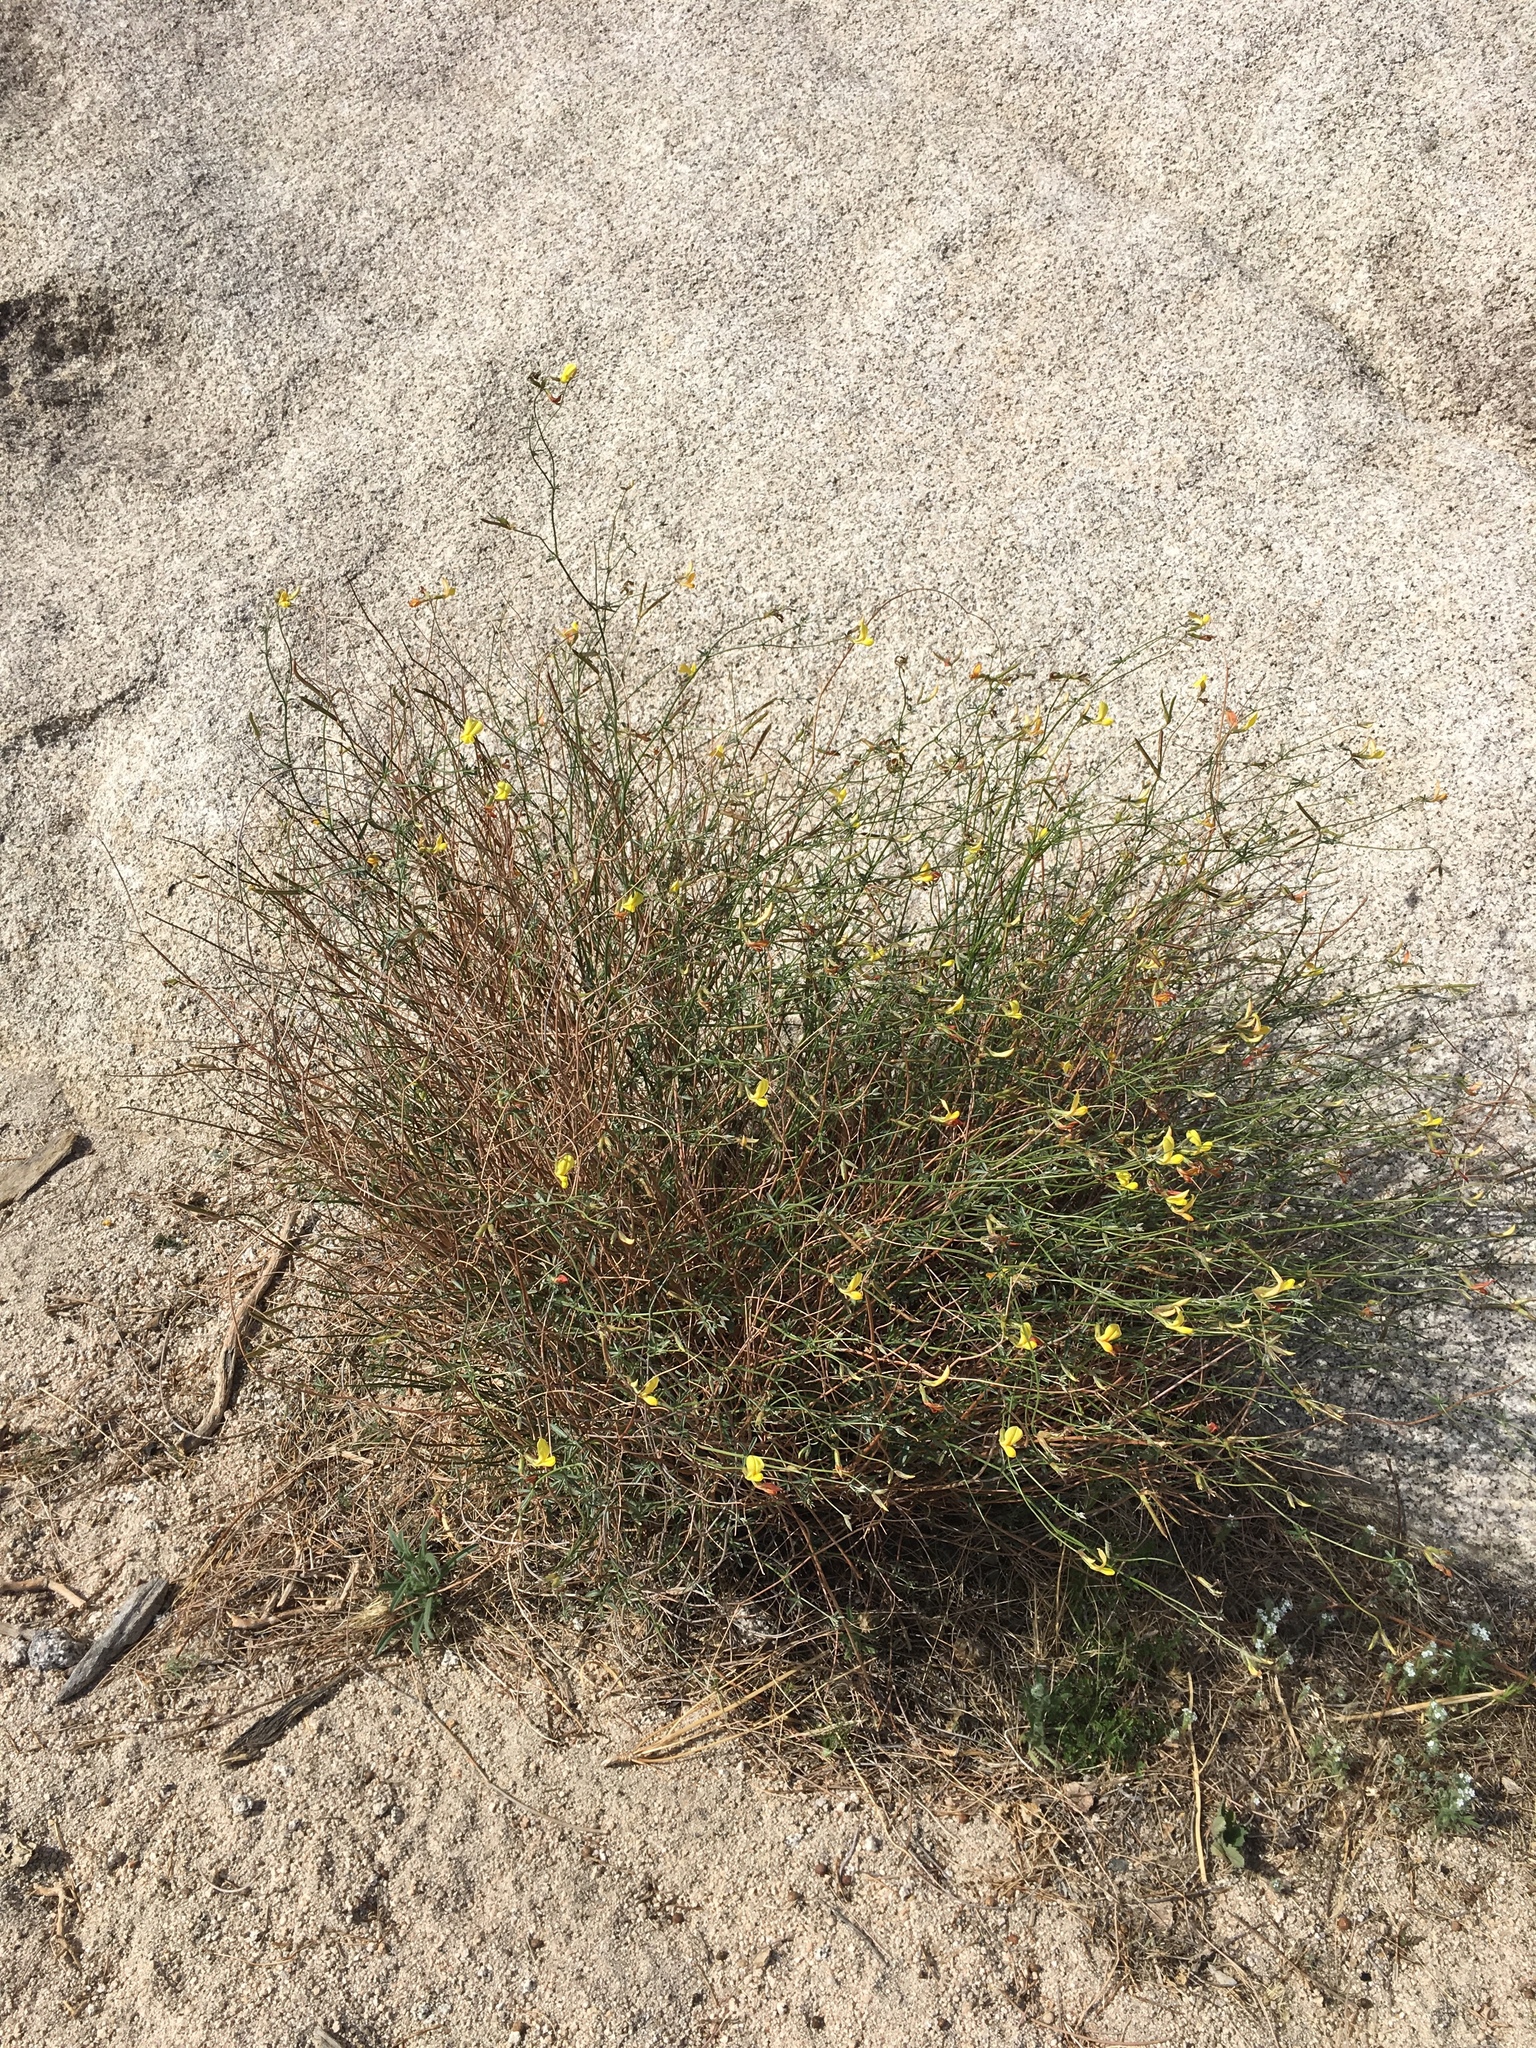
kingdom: Plantae
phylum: Tracheophyta
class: Magnoliopsida
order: Fabales
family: Fabaceae
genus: Acmispon
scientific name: Acmispon rigidus
